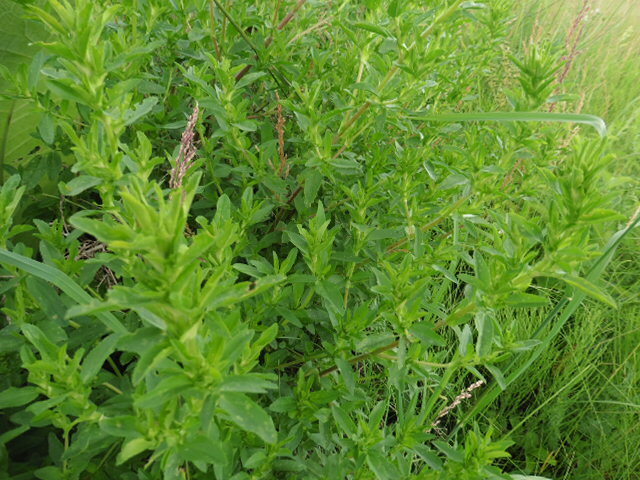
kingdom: Plantae
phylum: Tracheophyta
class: Magnoliopsida
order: Fabales
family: Fabaceae
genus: Ononis
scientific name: Ononis arvensis
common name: Field restharrow
